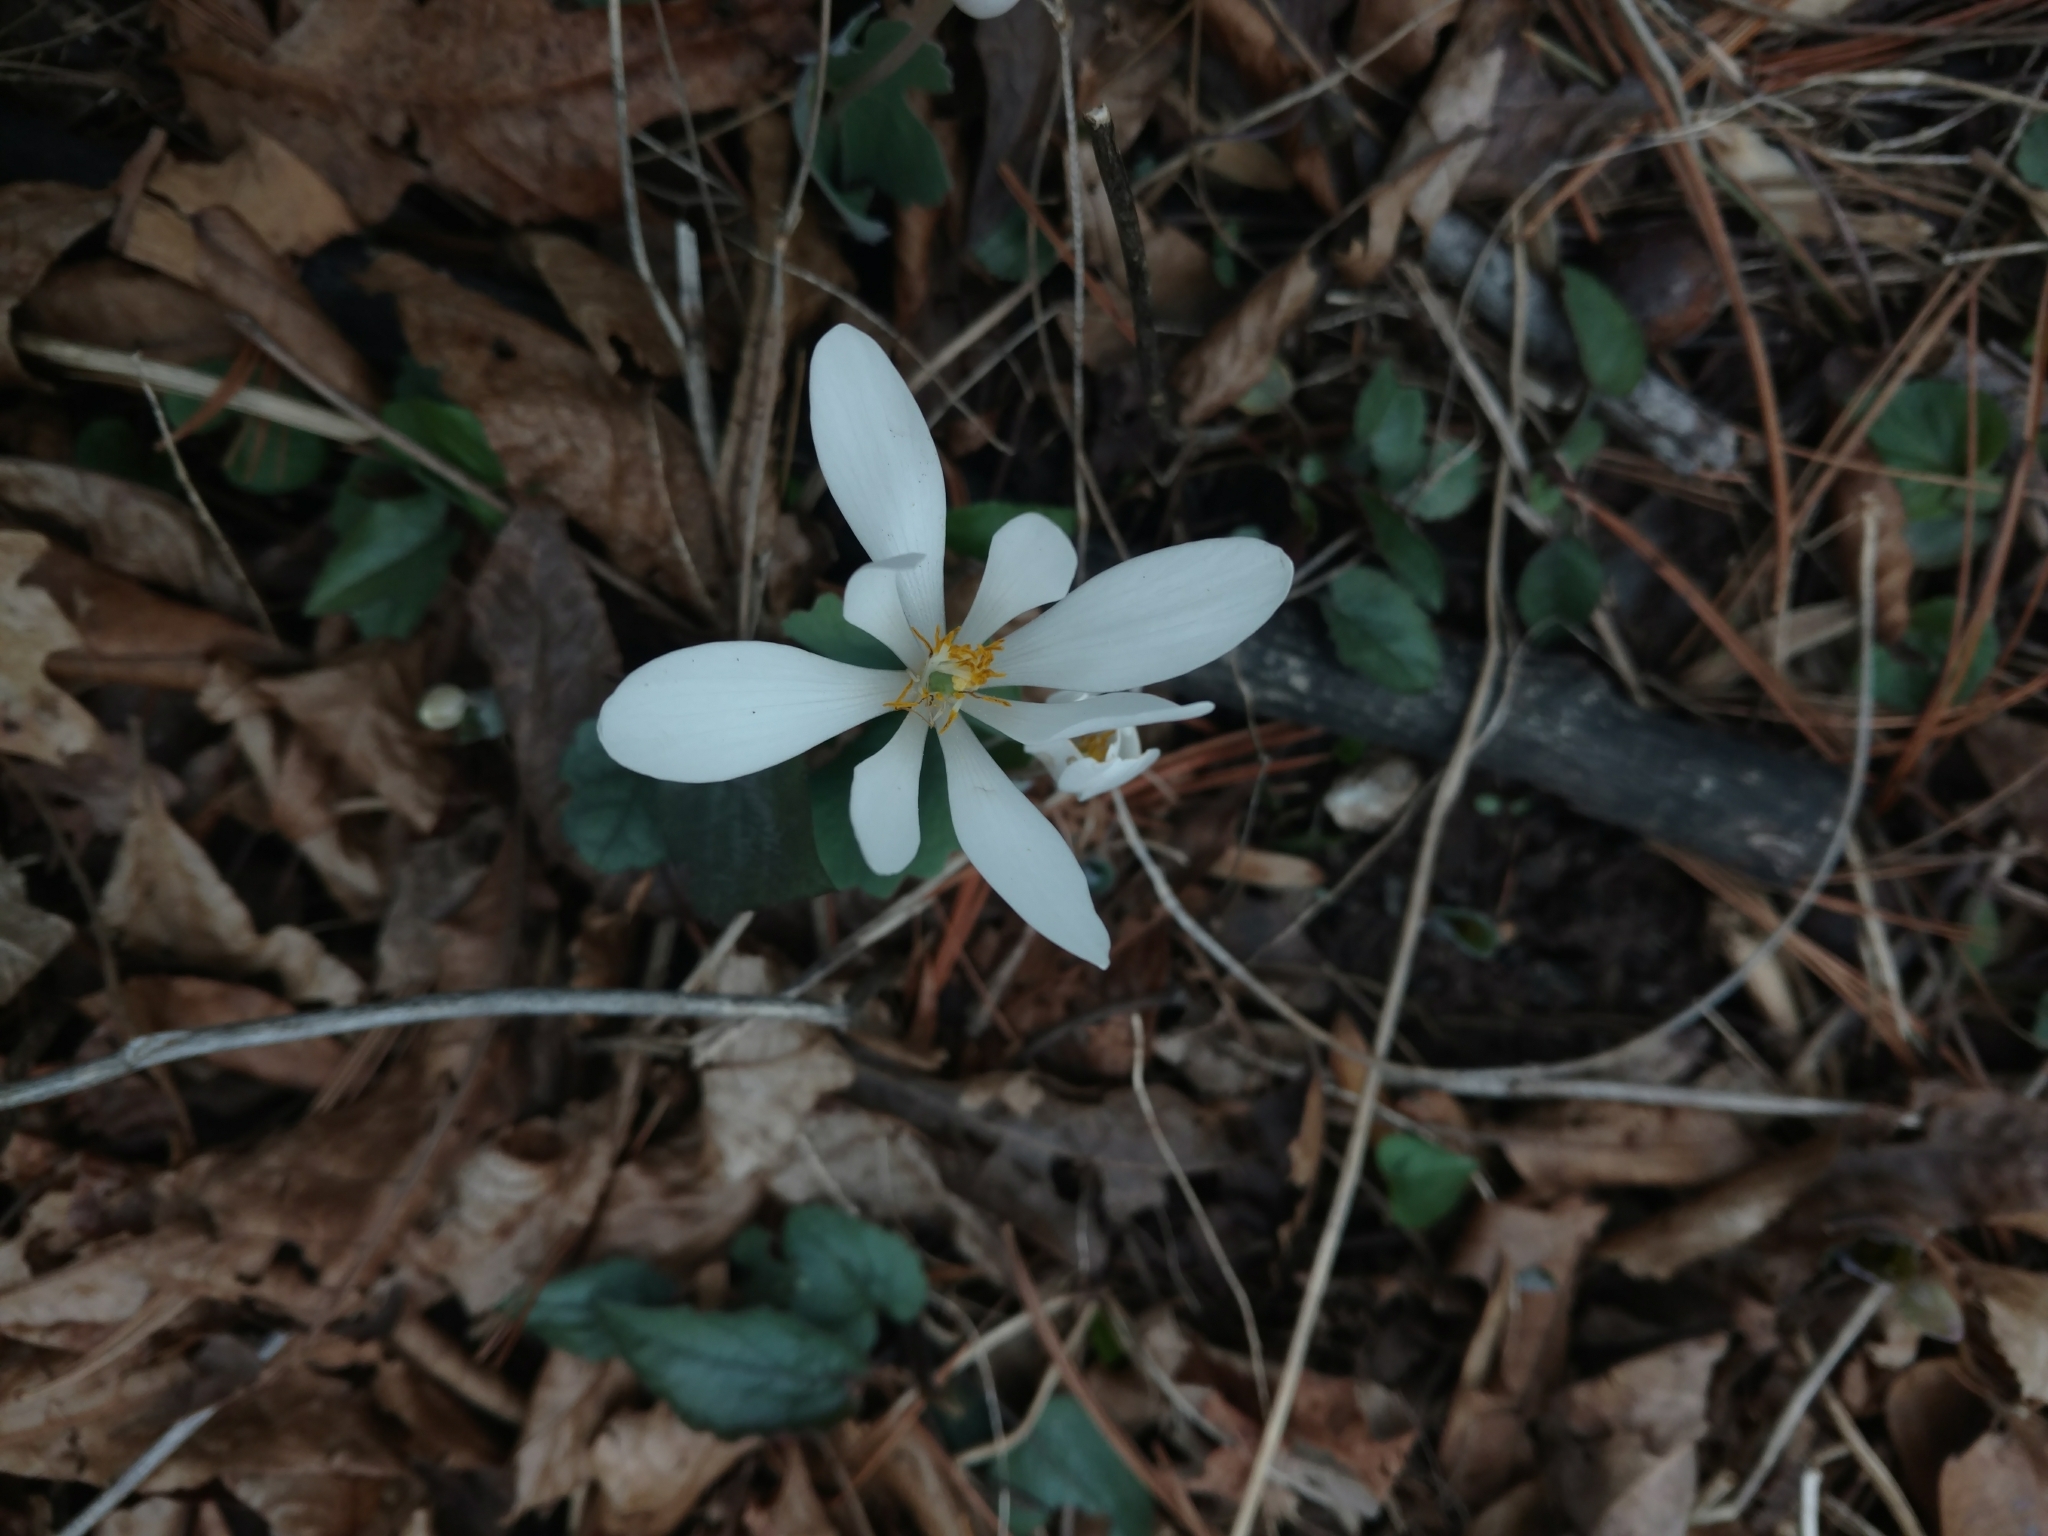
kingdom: Plantae
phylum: Tracheophyta
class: Magnoliopsida
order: Ranunculales
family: Papaveraceae
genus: Sanguinaria
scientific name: Sanguinaria canadensis
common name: Bloodroot
